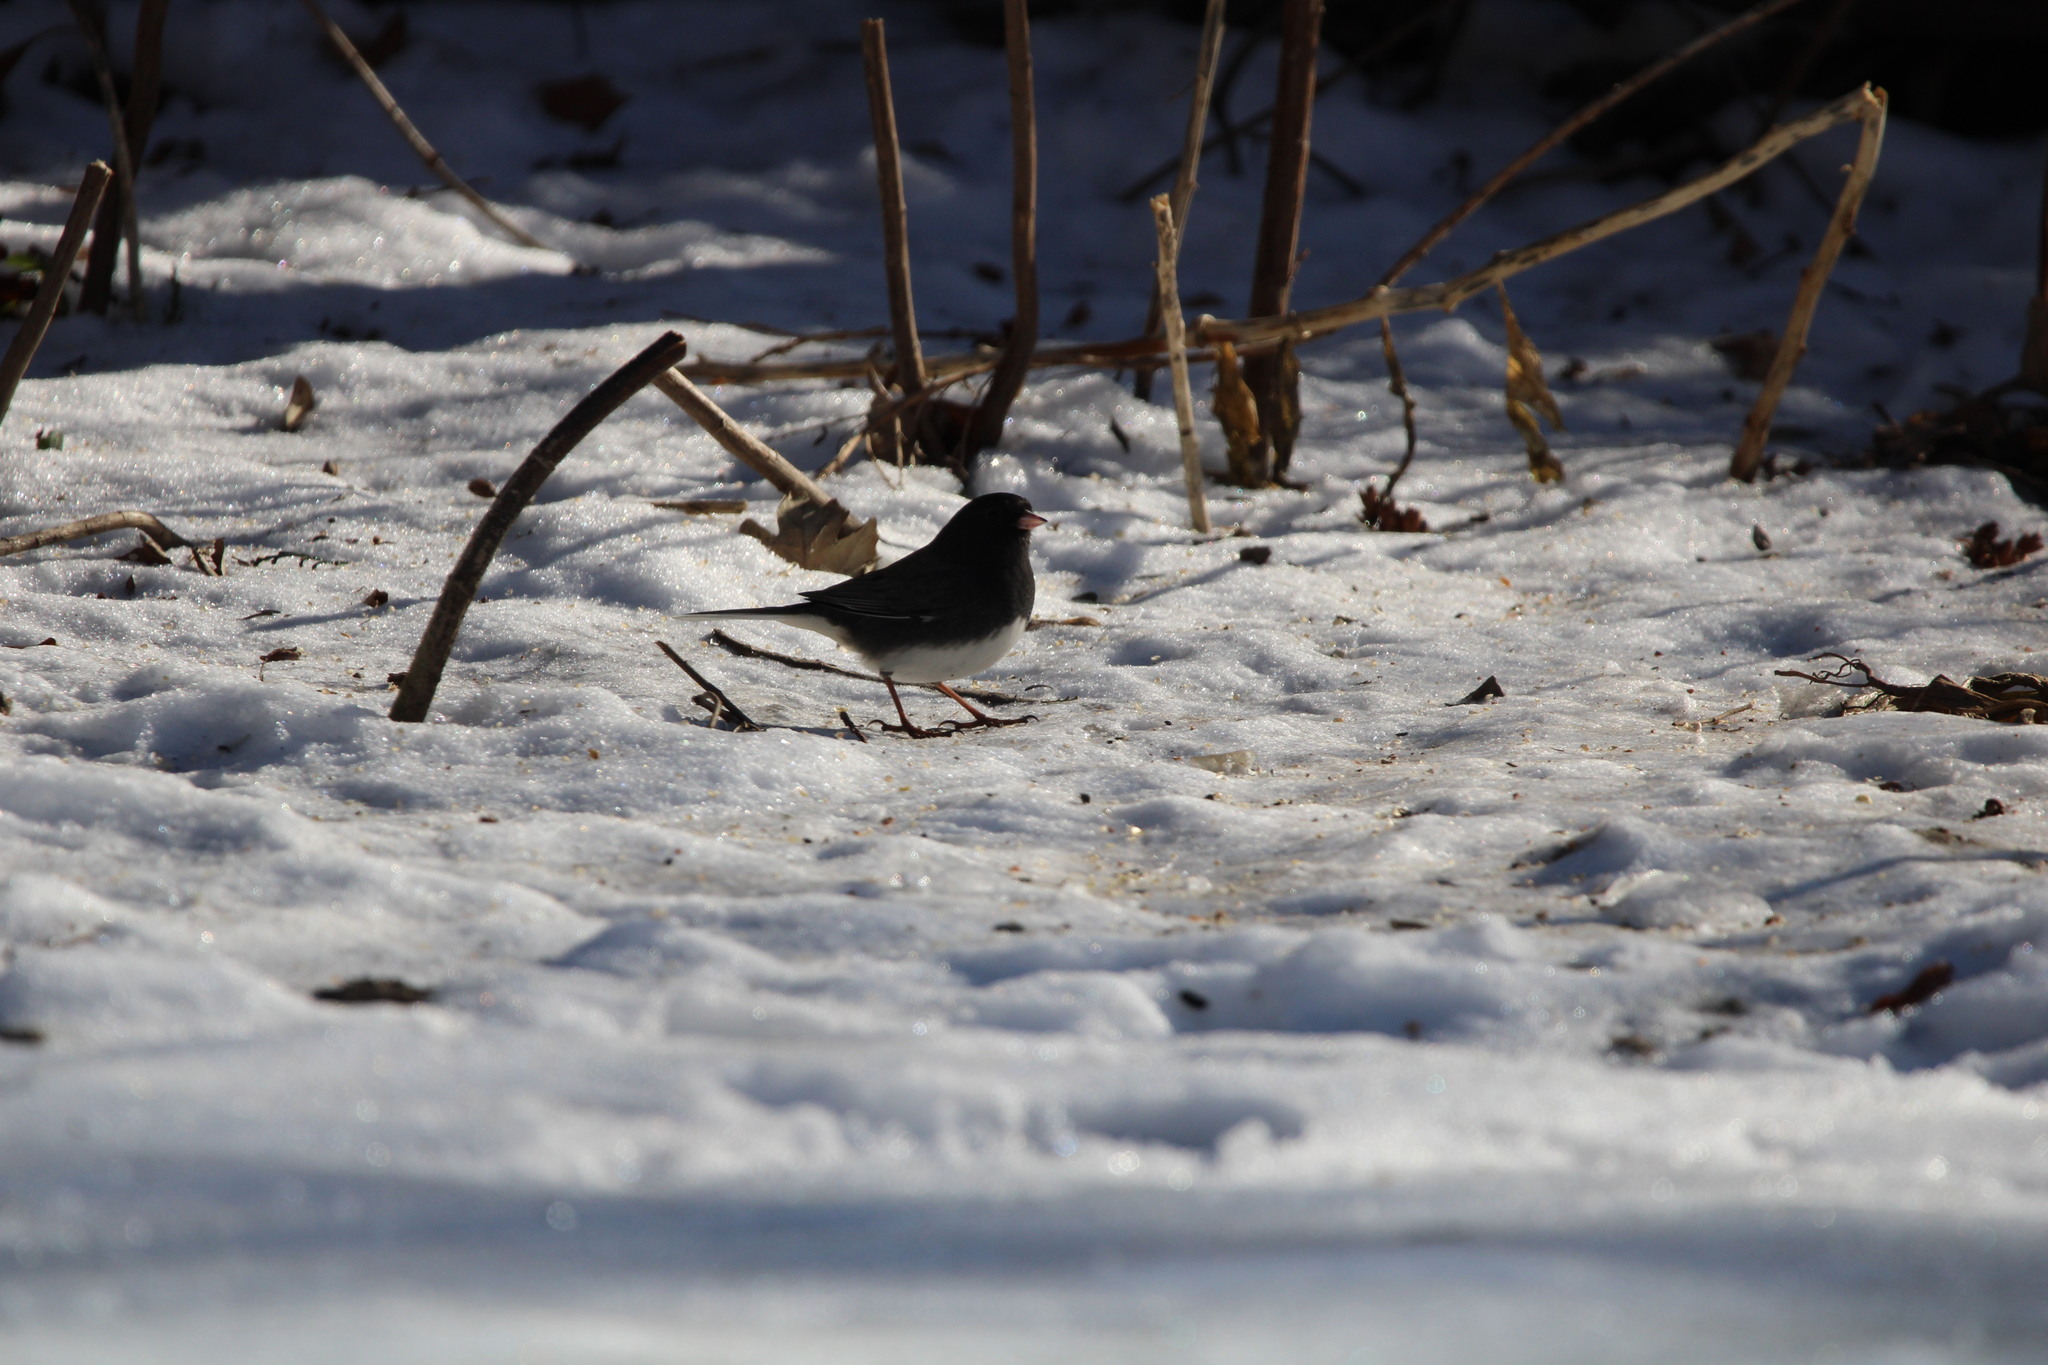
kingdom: Animalia
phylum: Chordata
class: Aves
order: Passeriformes
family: Passerellidae
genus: Junco
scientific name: Junco hyemalis
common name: Dark-eyed junco
